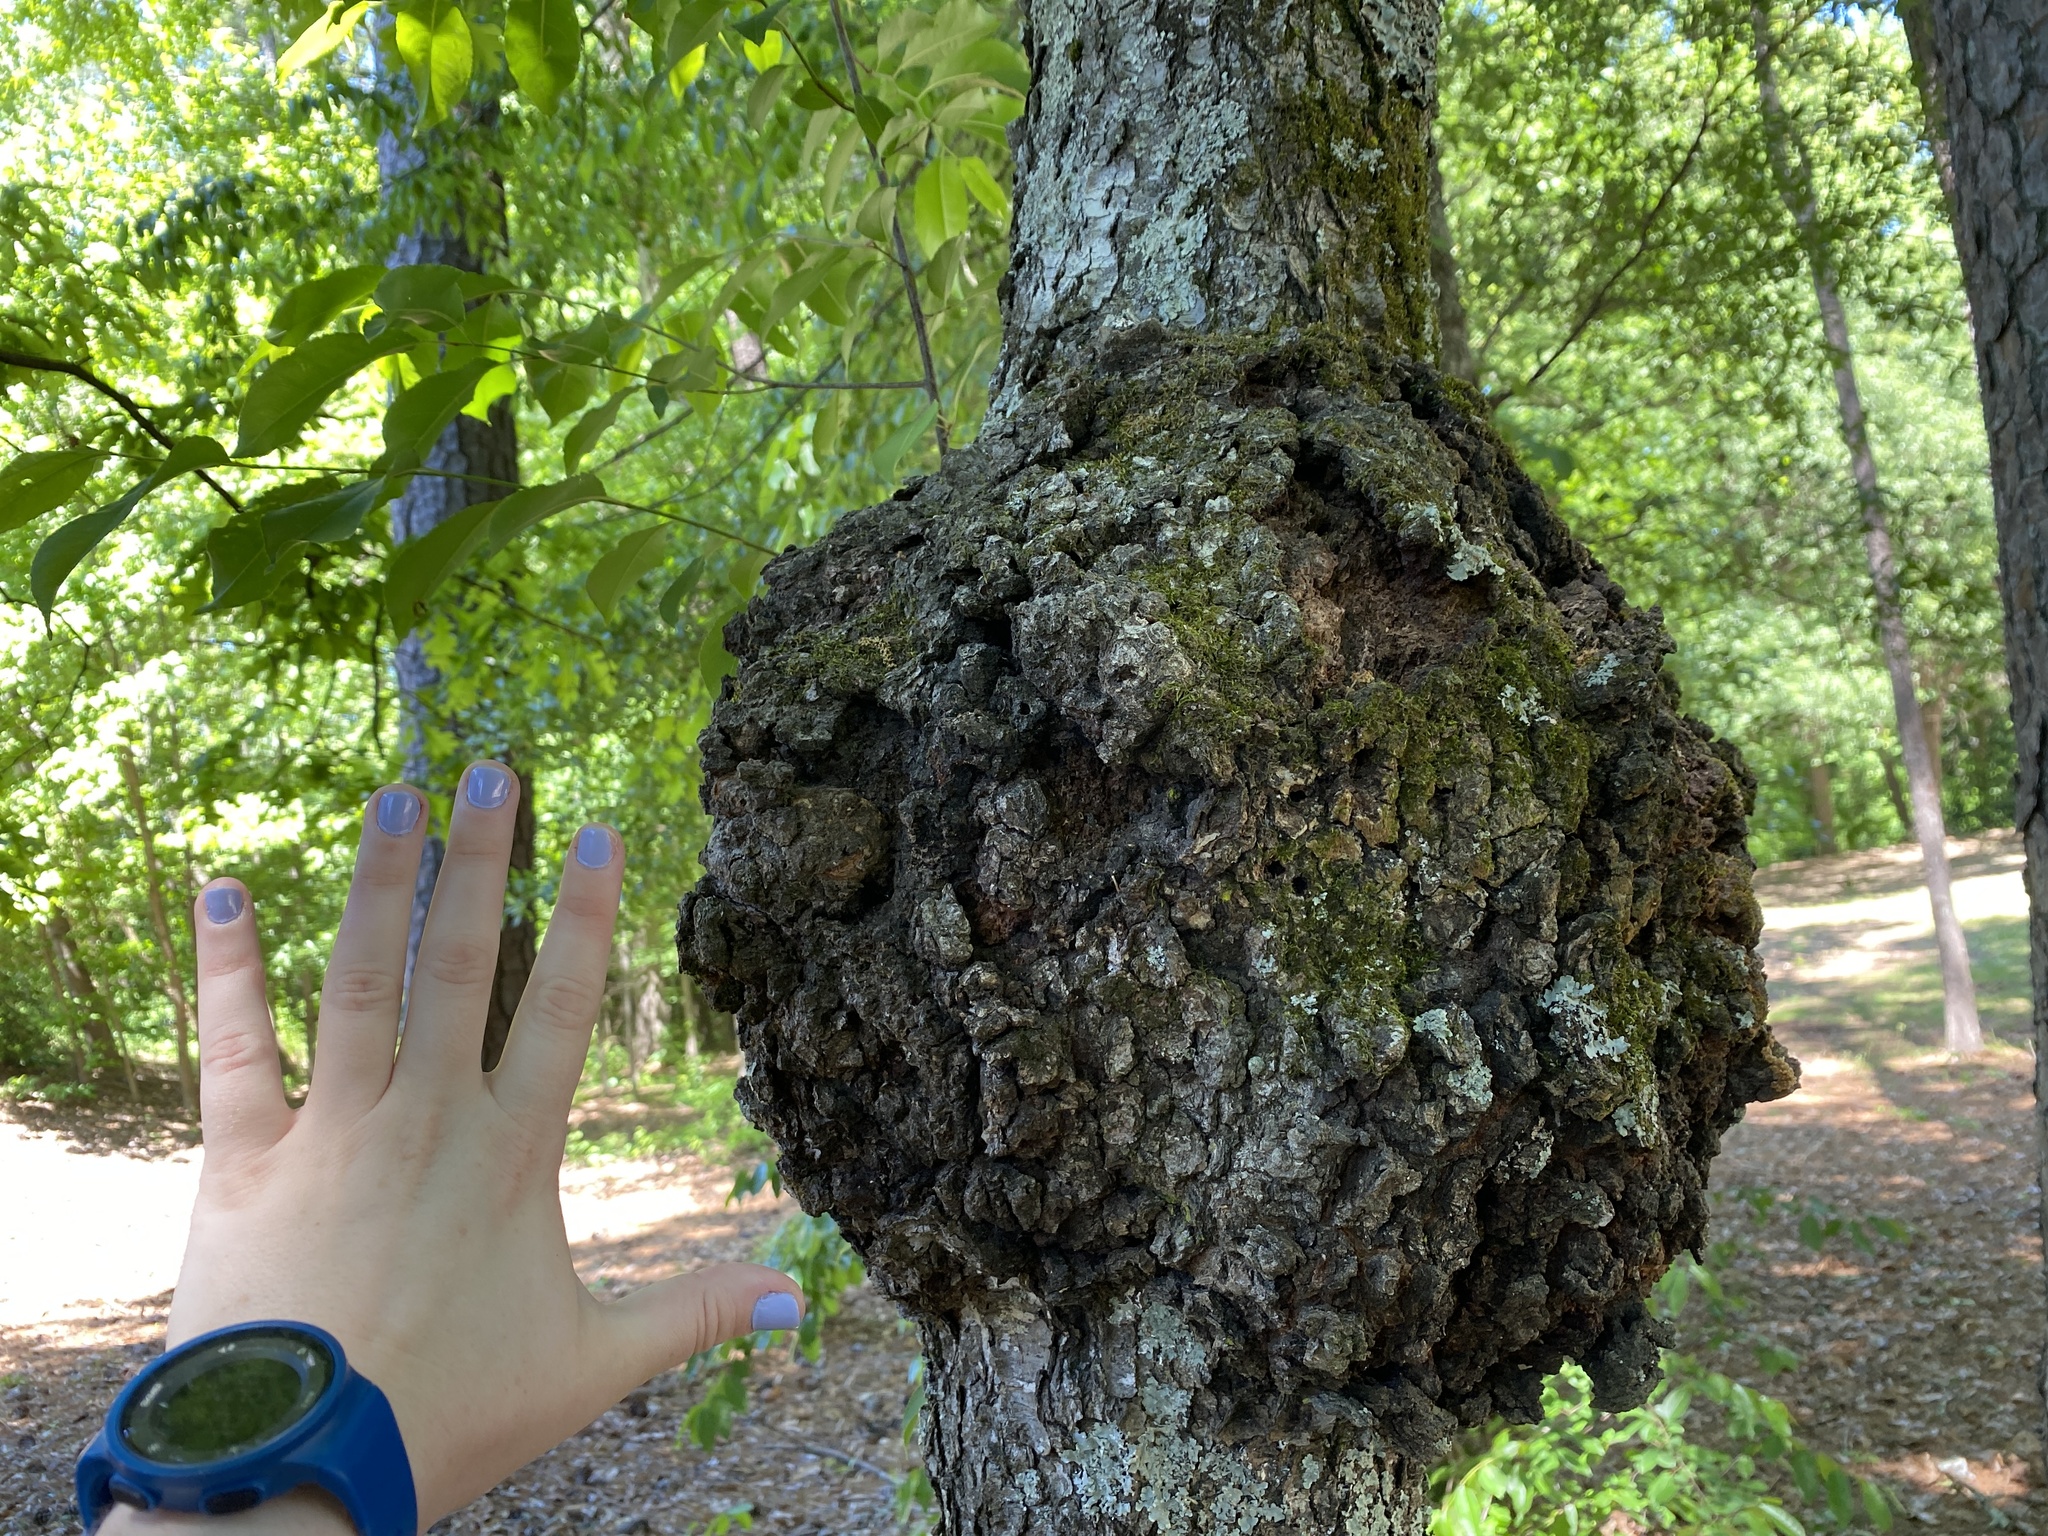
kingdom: Bacteria
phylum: Proteobacteria
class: Alphaproteobacteria
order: Rhizobiales
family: Rhizobiaceae
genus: Rhizobium
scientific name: Rhizobium Agrobacterium radiobacter
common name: Bacterial crown gall
